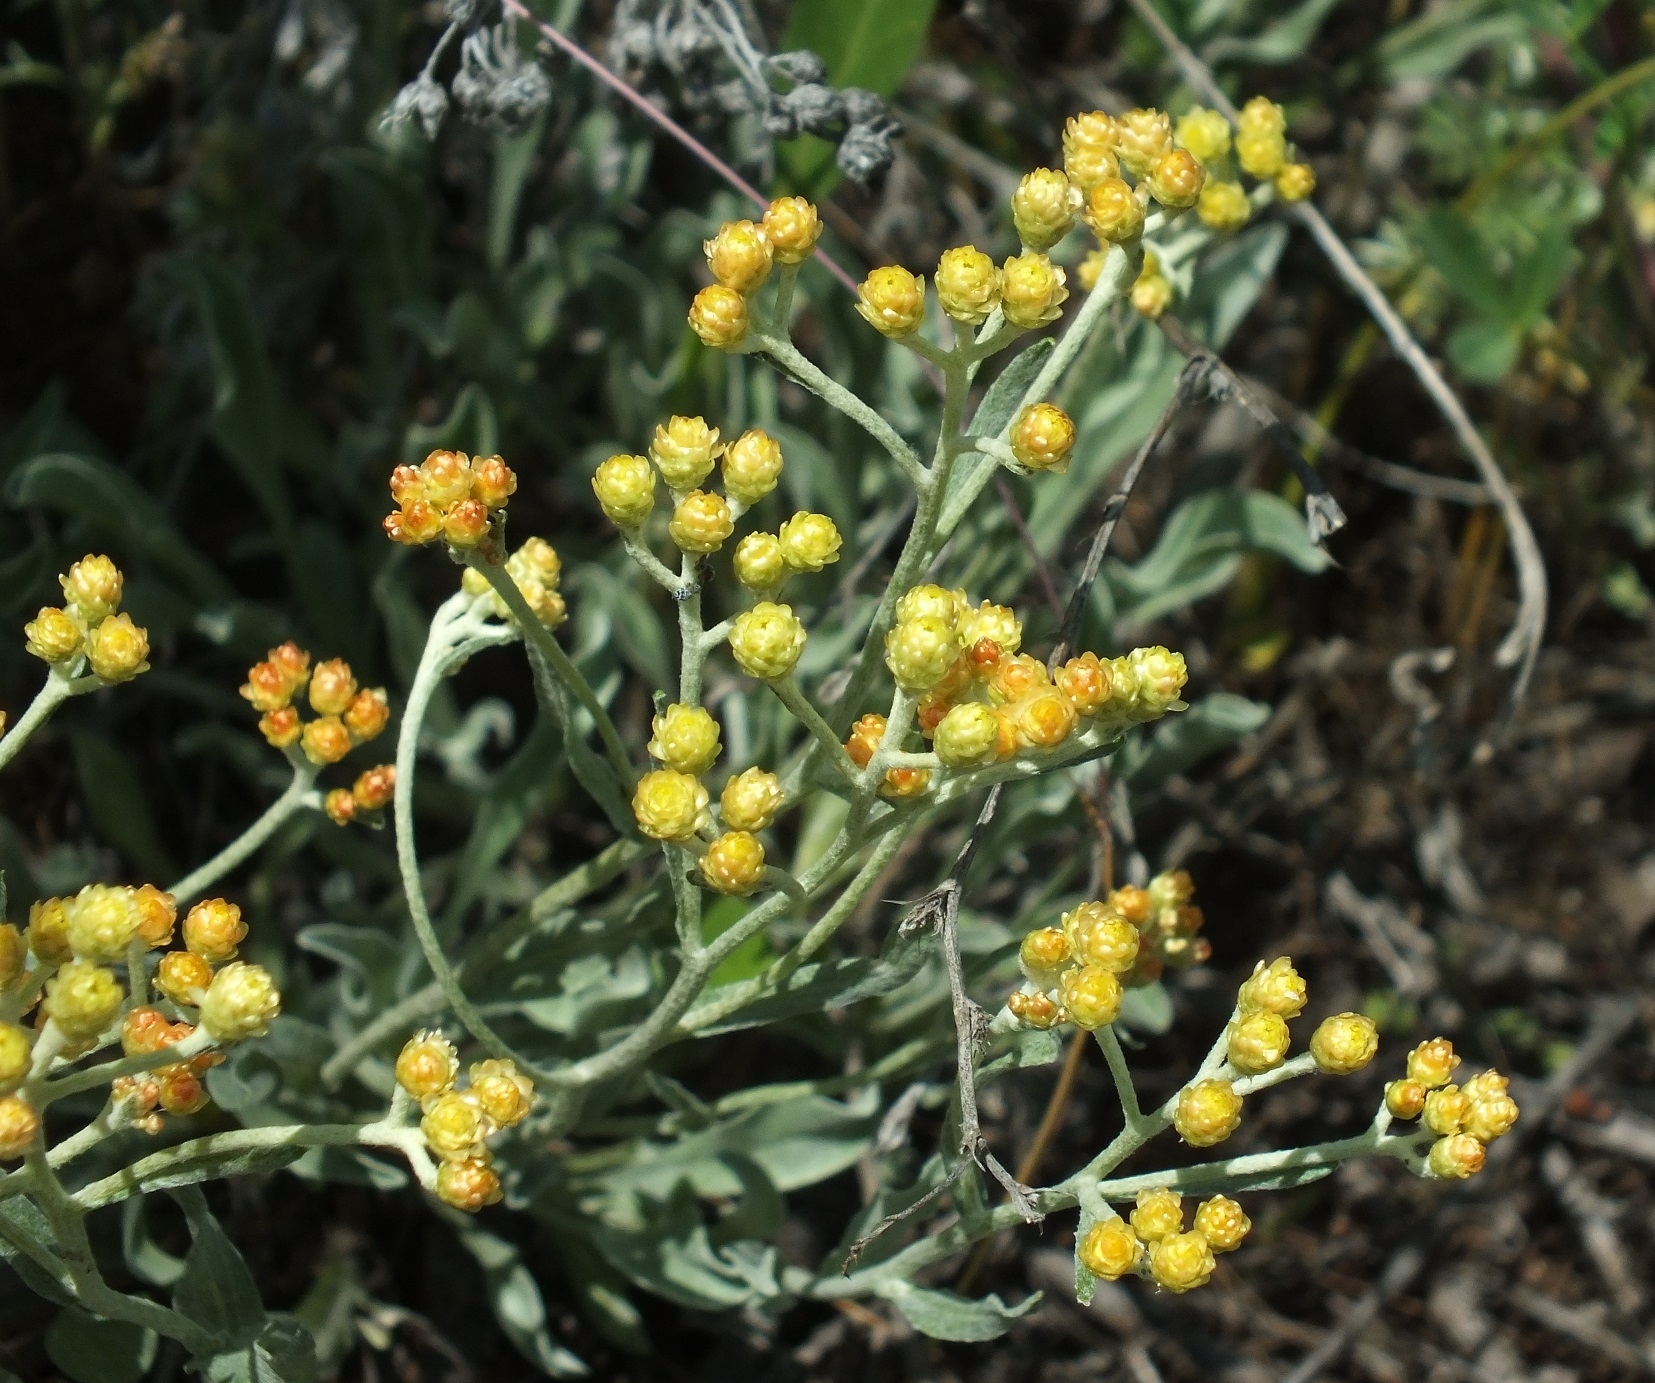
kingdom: Plantae
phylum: Tracheophyta
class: Magnoliopsida
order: Asterales
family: Asteraceae
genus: Helichrysum
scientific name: Helichrysum arenarium
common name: Strawflower
